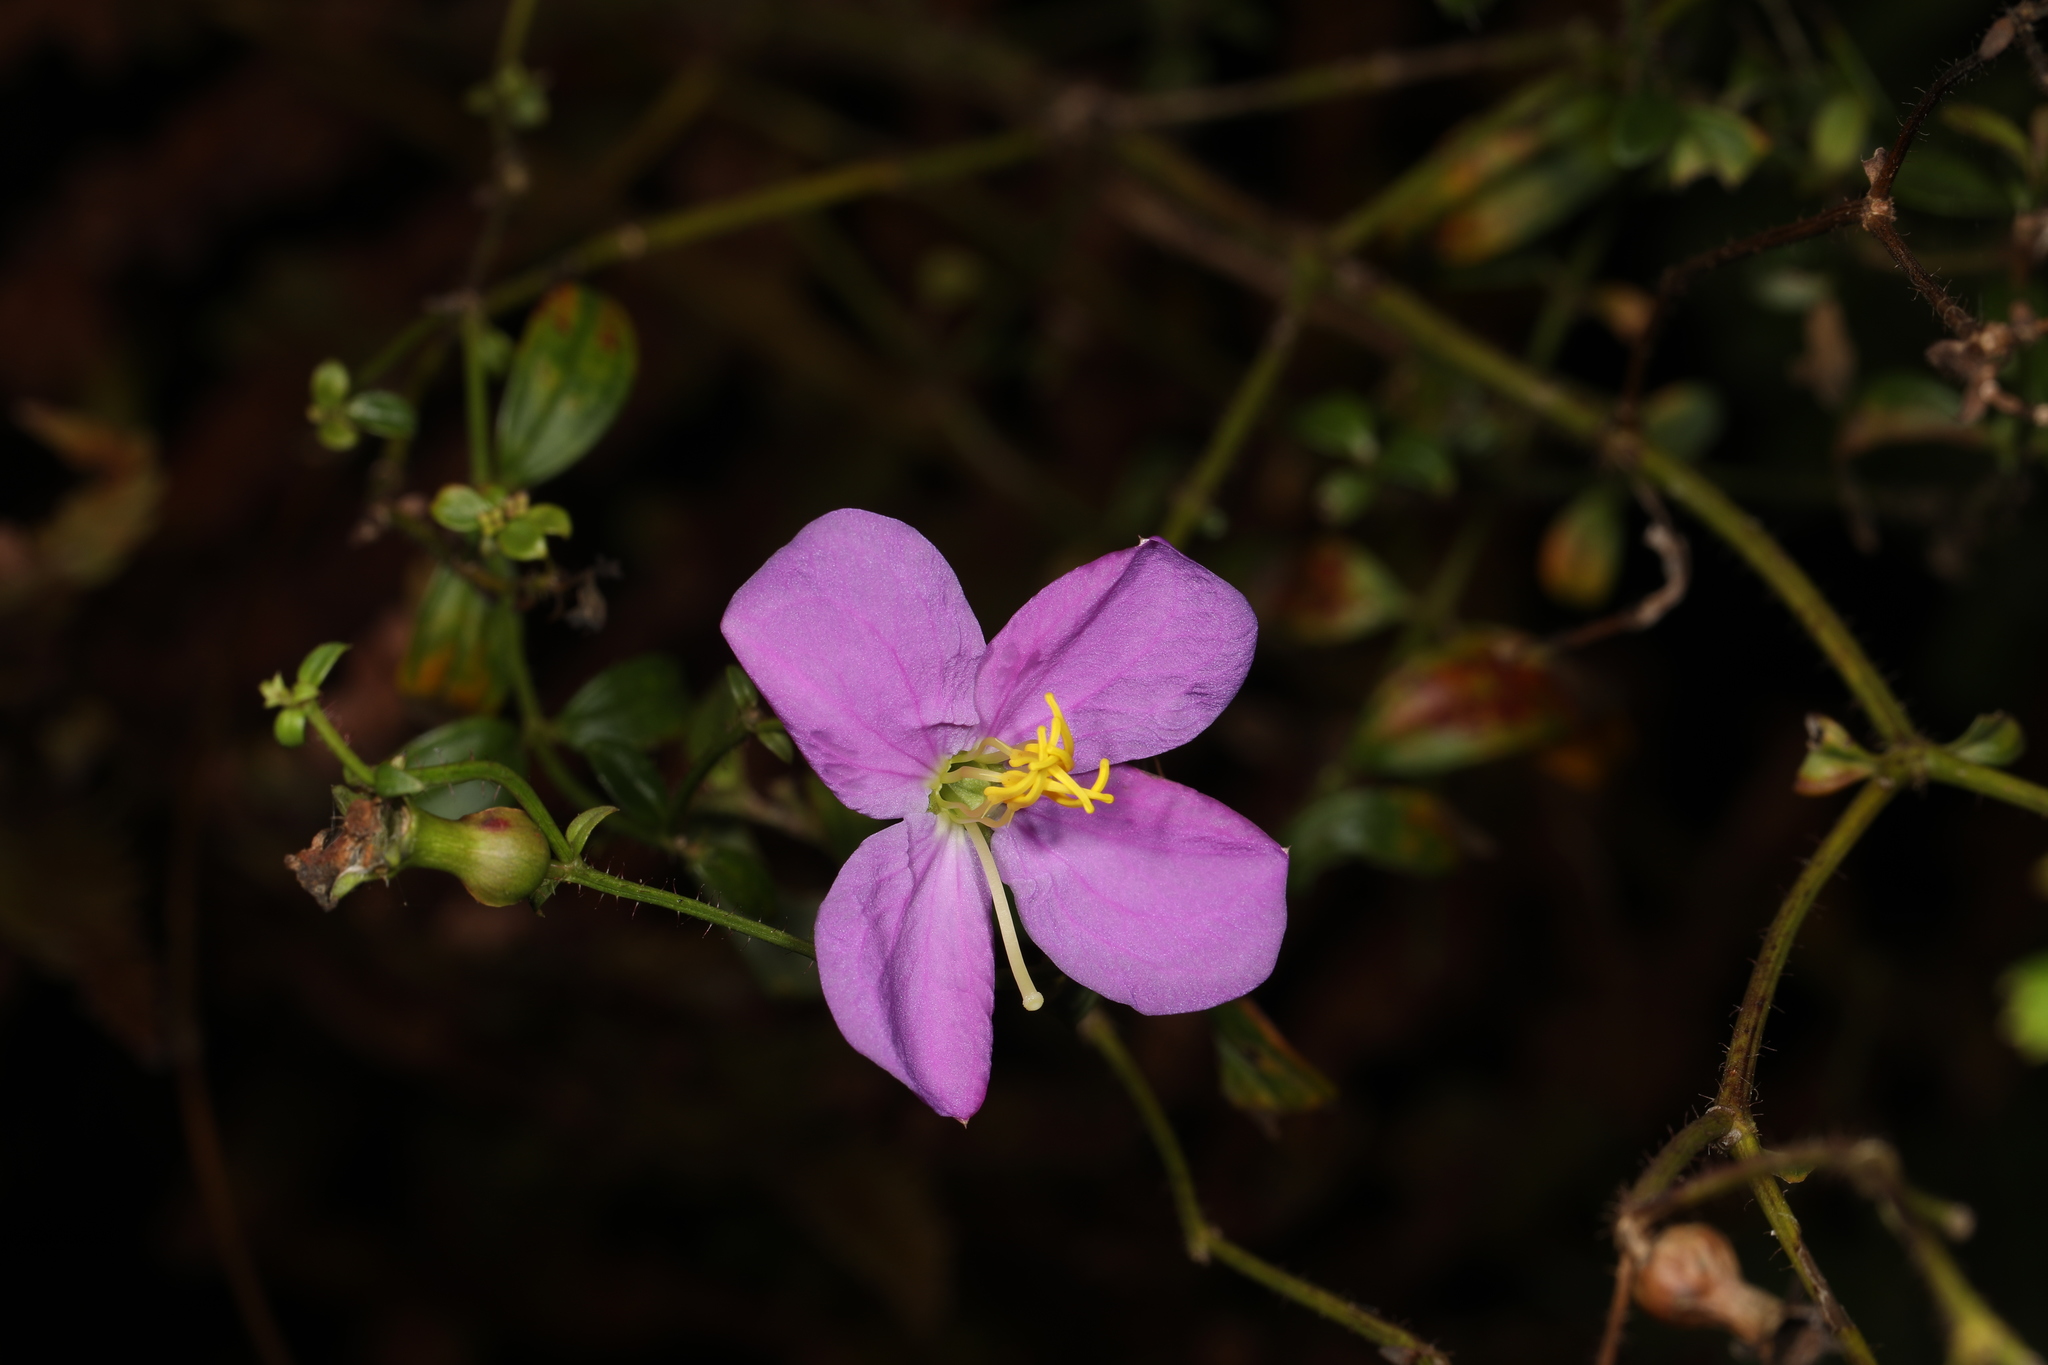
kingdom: Plantae
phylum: Tracheophyta
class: Magnoliopsida
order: Myrtales
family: Melastomataceae
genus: Rhexia
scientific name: Rhexia nashii
